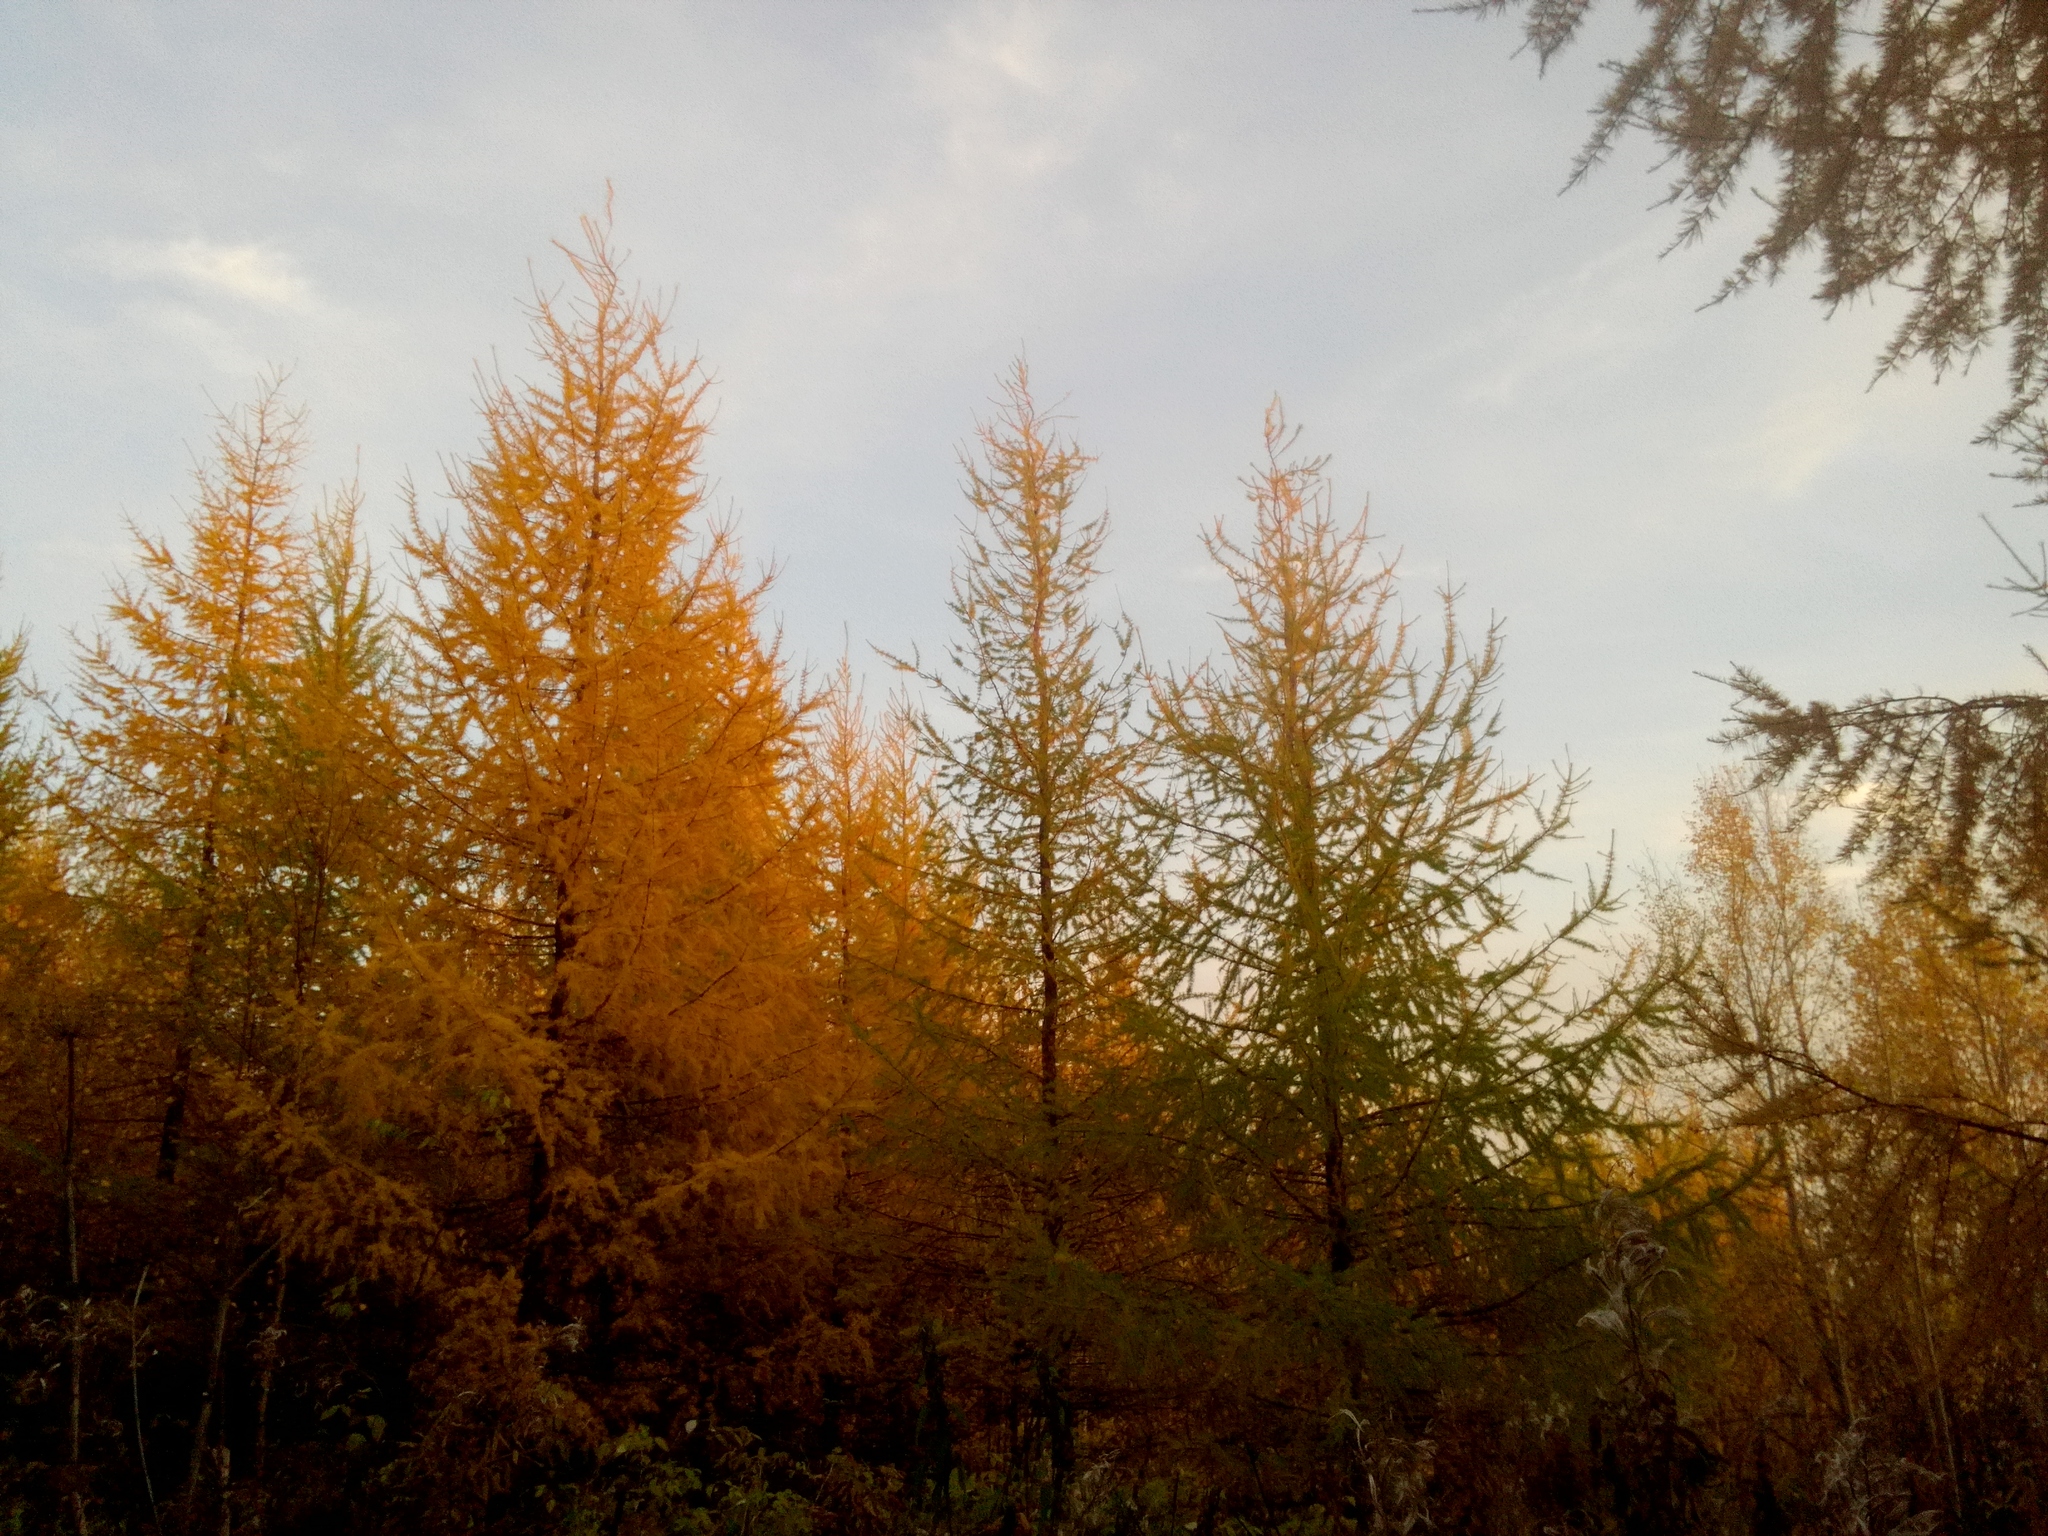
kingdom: Plantae
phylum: Tracheophyta
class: Pinopsida
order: Pinales
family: Pinaceae
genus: Larix
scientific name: Larix sibirica
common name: Siberian larch
